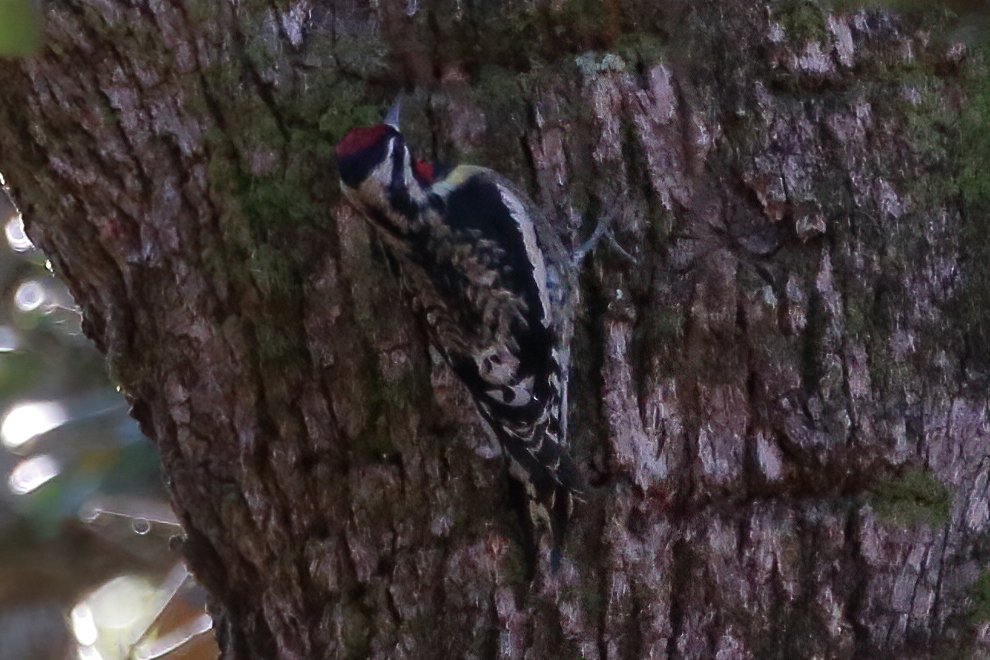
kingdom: Animalia
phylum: Chordata
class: Aves
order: Piciformes
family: Picidae
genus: Sphyrapicus
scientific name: Sphyrapicus varius
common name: Yellow-bellied sapsucker
